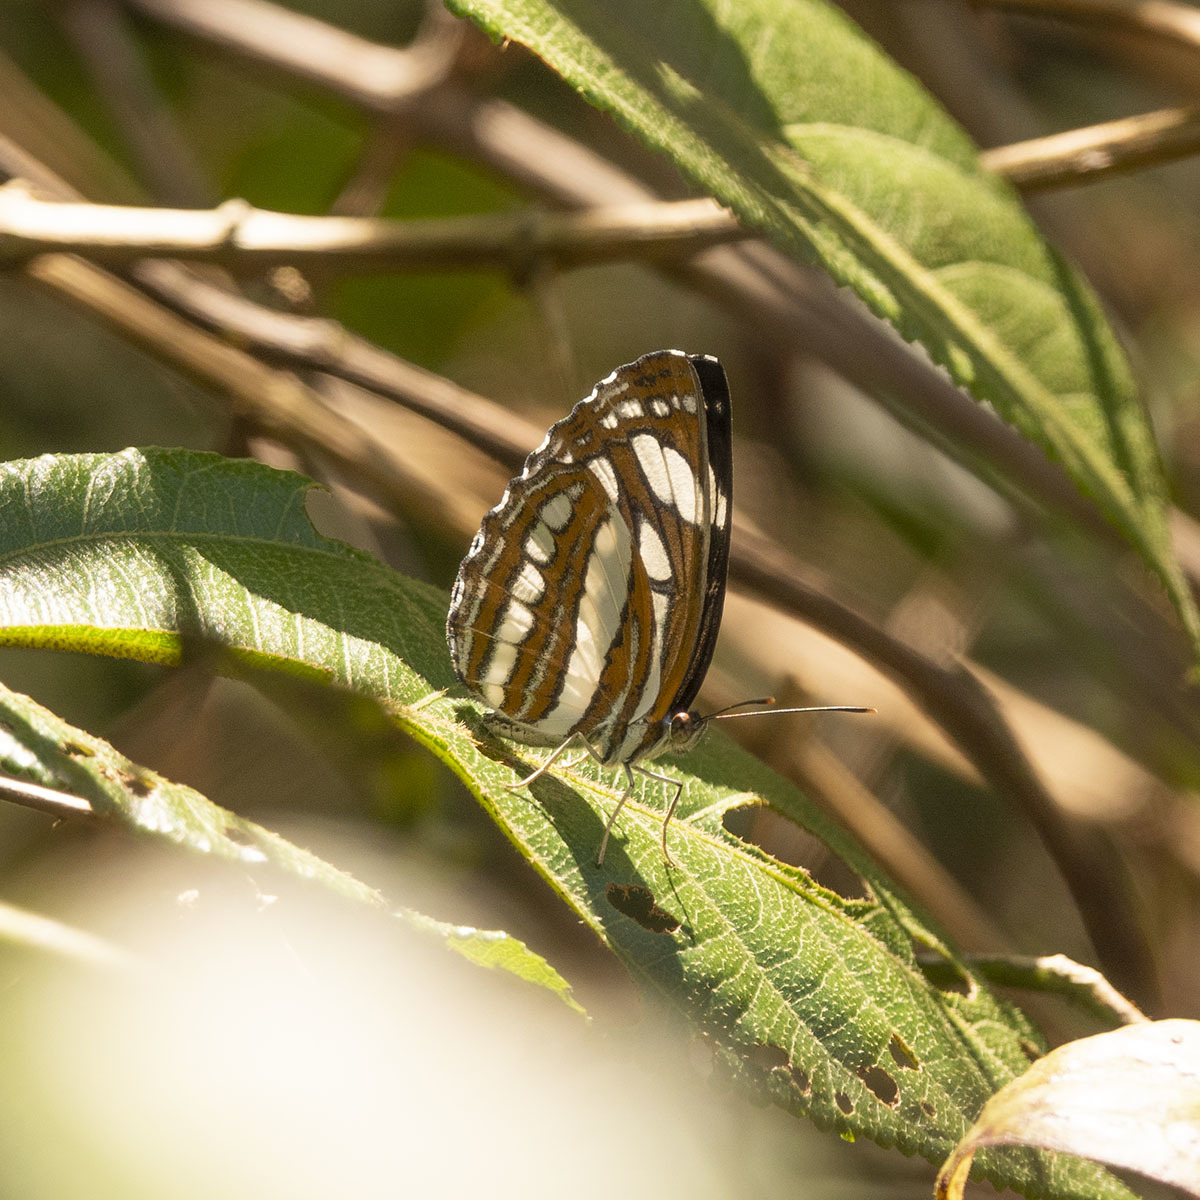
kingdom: Animalia
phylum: Arthropoda
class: Insecta
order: Lepidoptera
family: Nymphalidae
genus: Neptis
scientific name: Neptis hylas
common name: Common sailer
